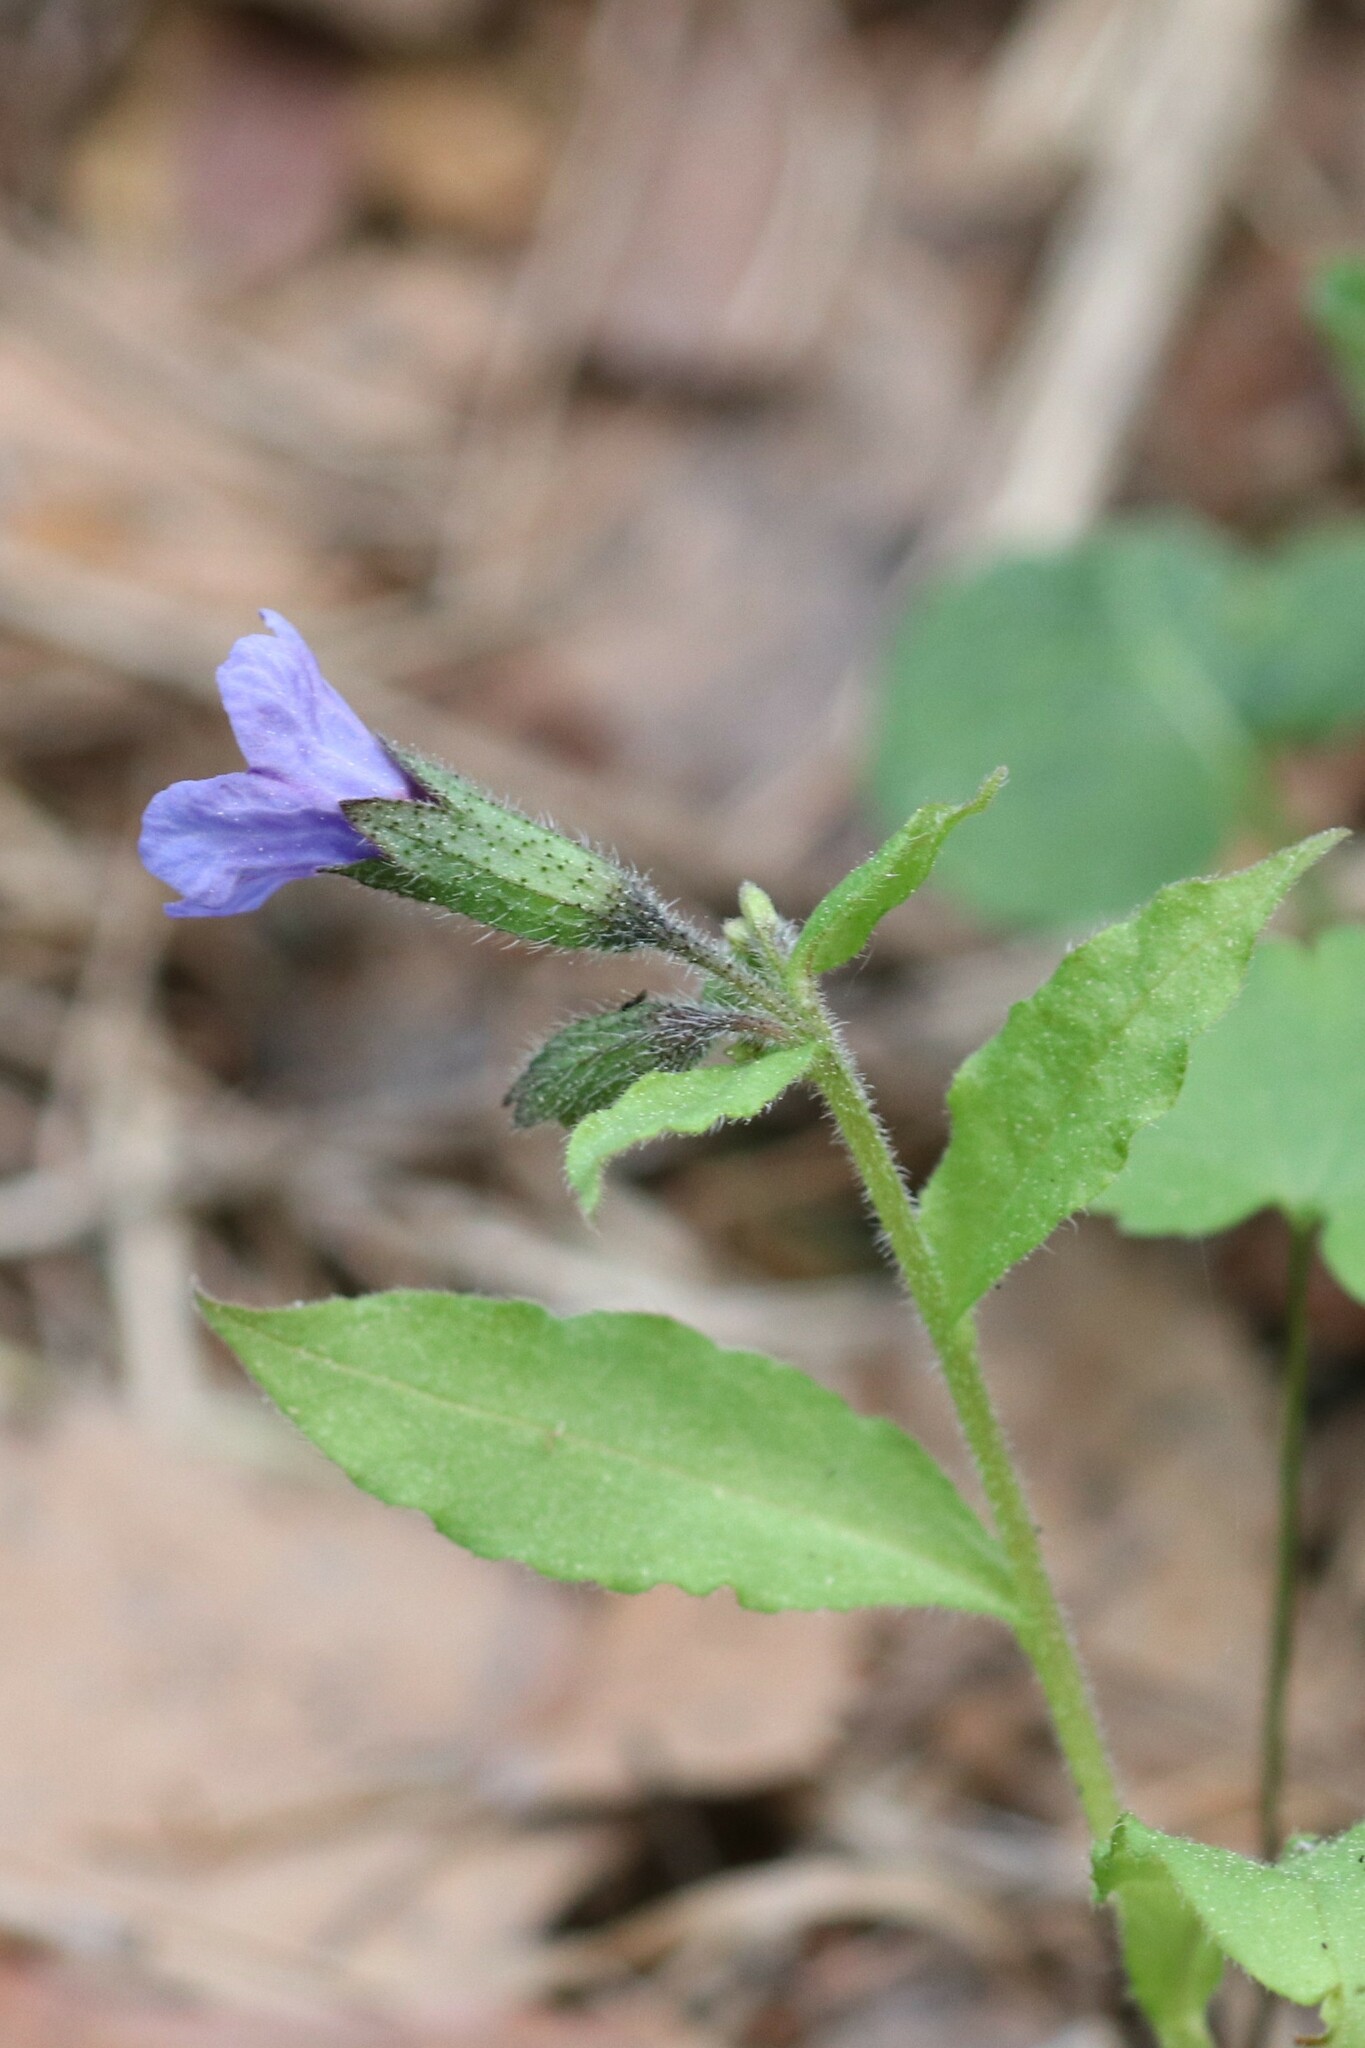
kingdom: Plantae
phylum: Tracheophyta
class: Magnoliopsida
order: Boraginales
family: Boraginaceae
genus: Pulmonaria
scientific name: Pulmonaria obscura
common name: Suffolk lungwort
